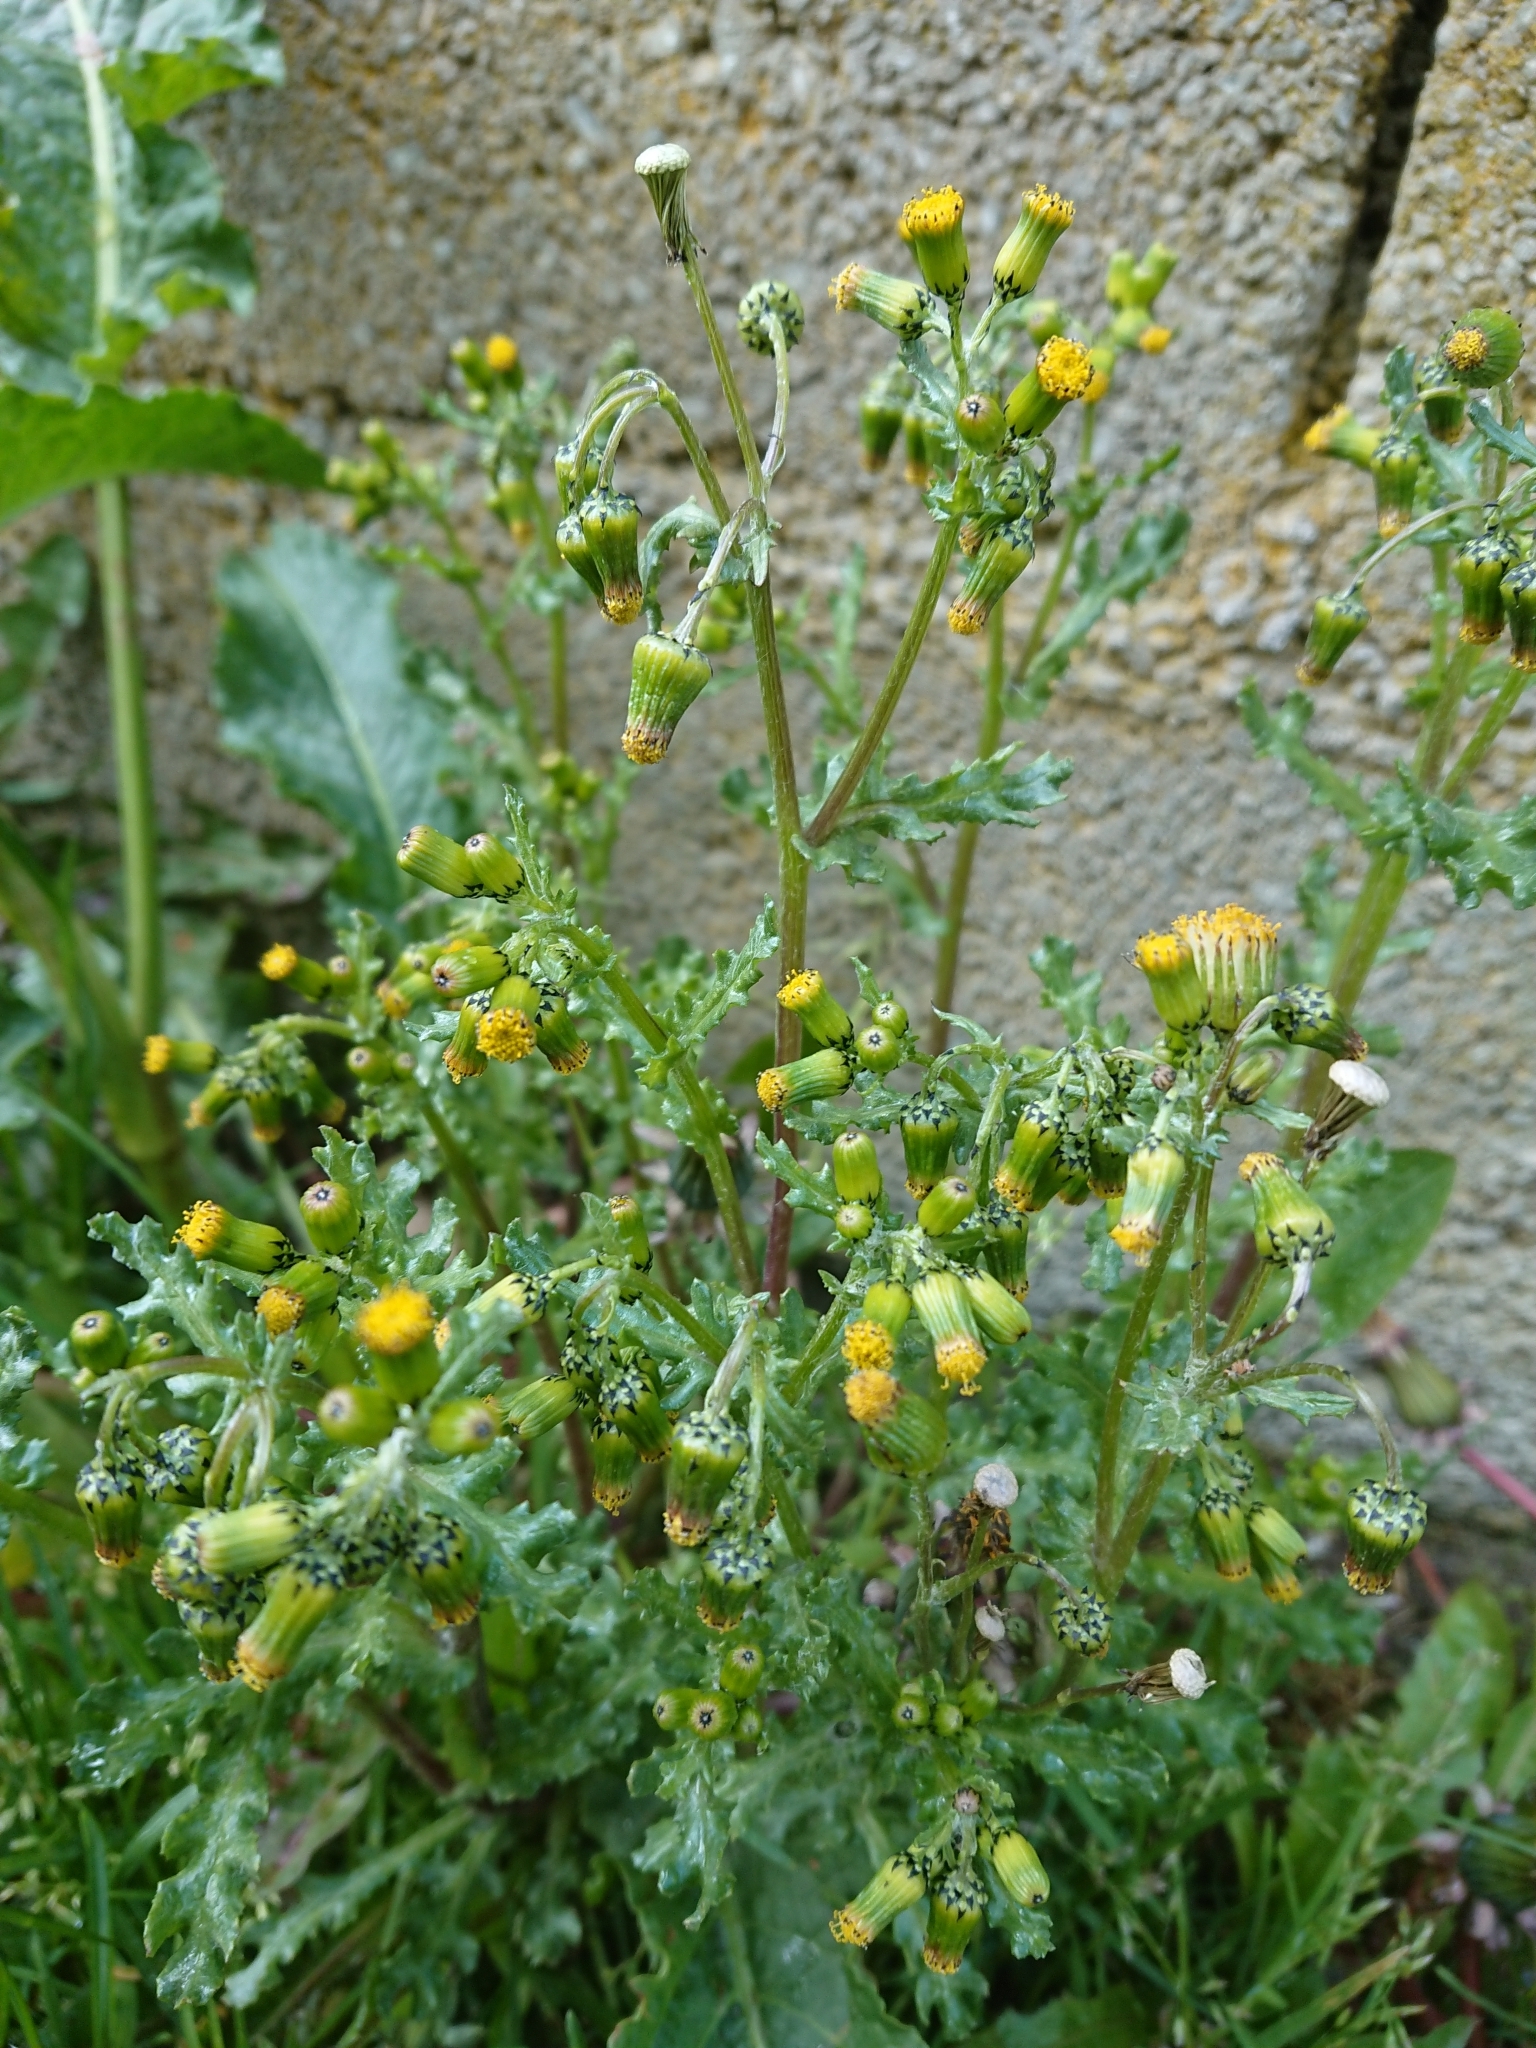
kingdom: Plantae
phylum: Tracheophyta
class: Magnoliopsida
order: Asterales
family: Asteraceae
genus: Senecio
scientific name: Senecio vulgaris
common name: Old-man-in-the-spring
